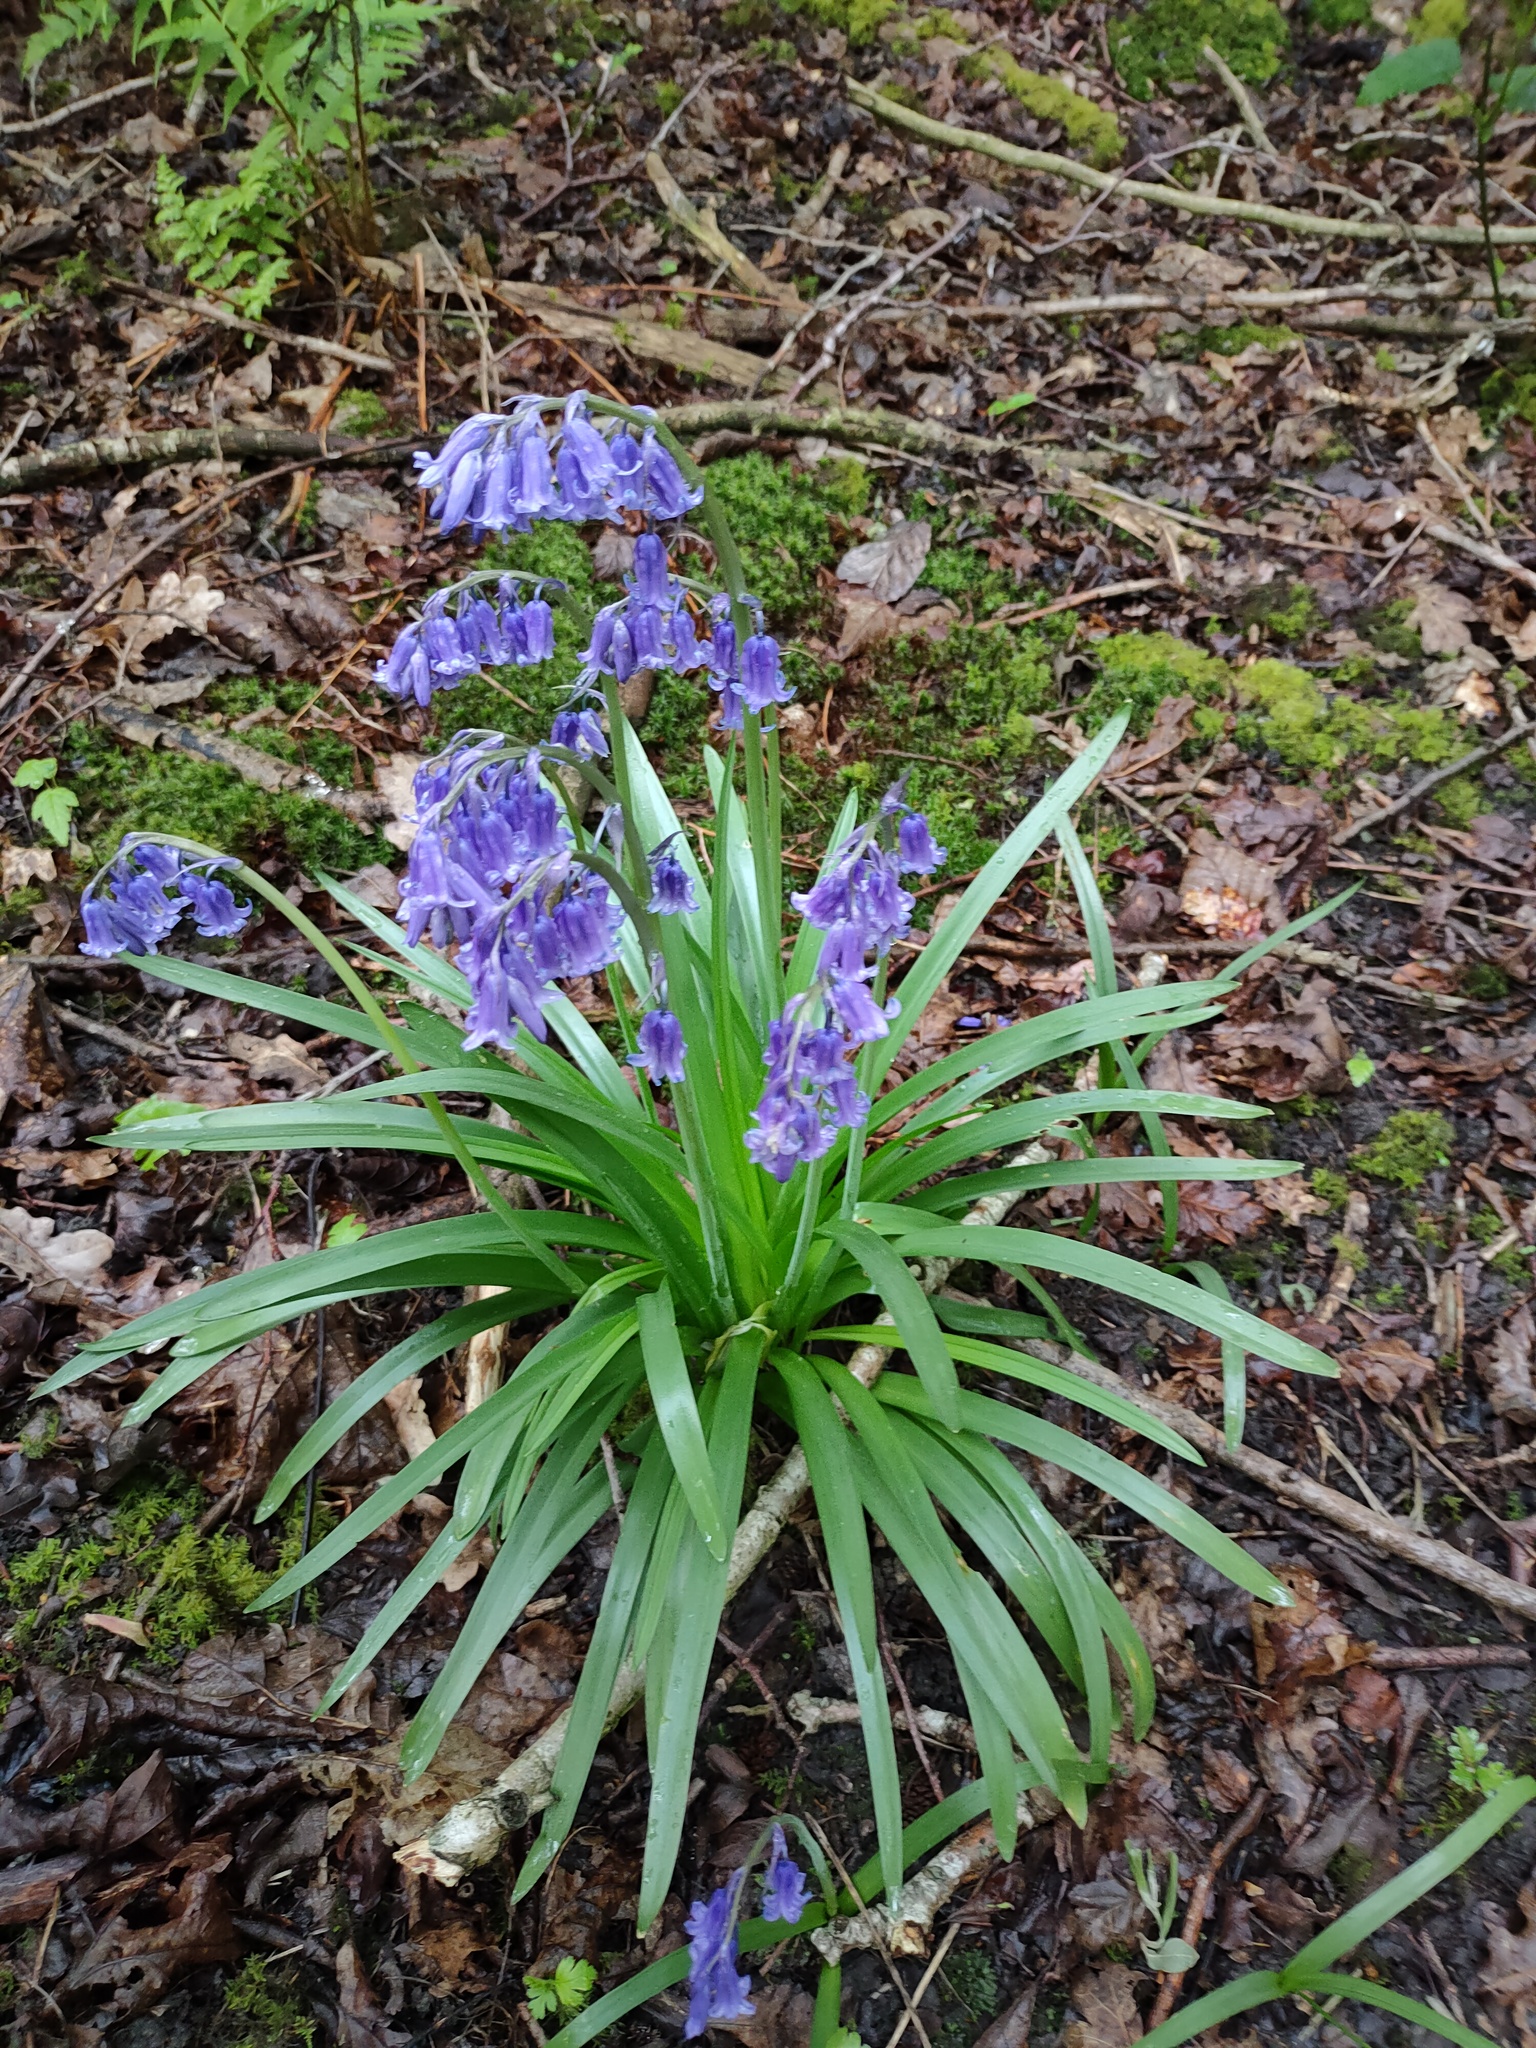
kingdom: Plantae
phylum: Tracheophyta
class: Liliopsida
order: Asparagales
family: Asparagaceae
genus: Hyacinthoides
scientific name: Hyacinthoides massartiana
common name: Hyacinthoides
